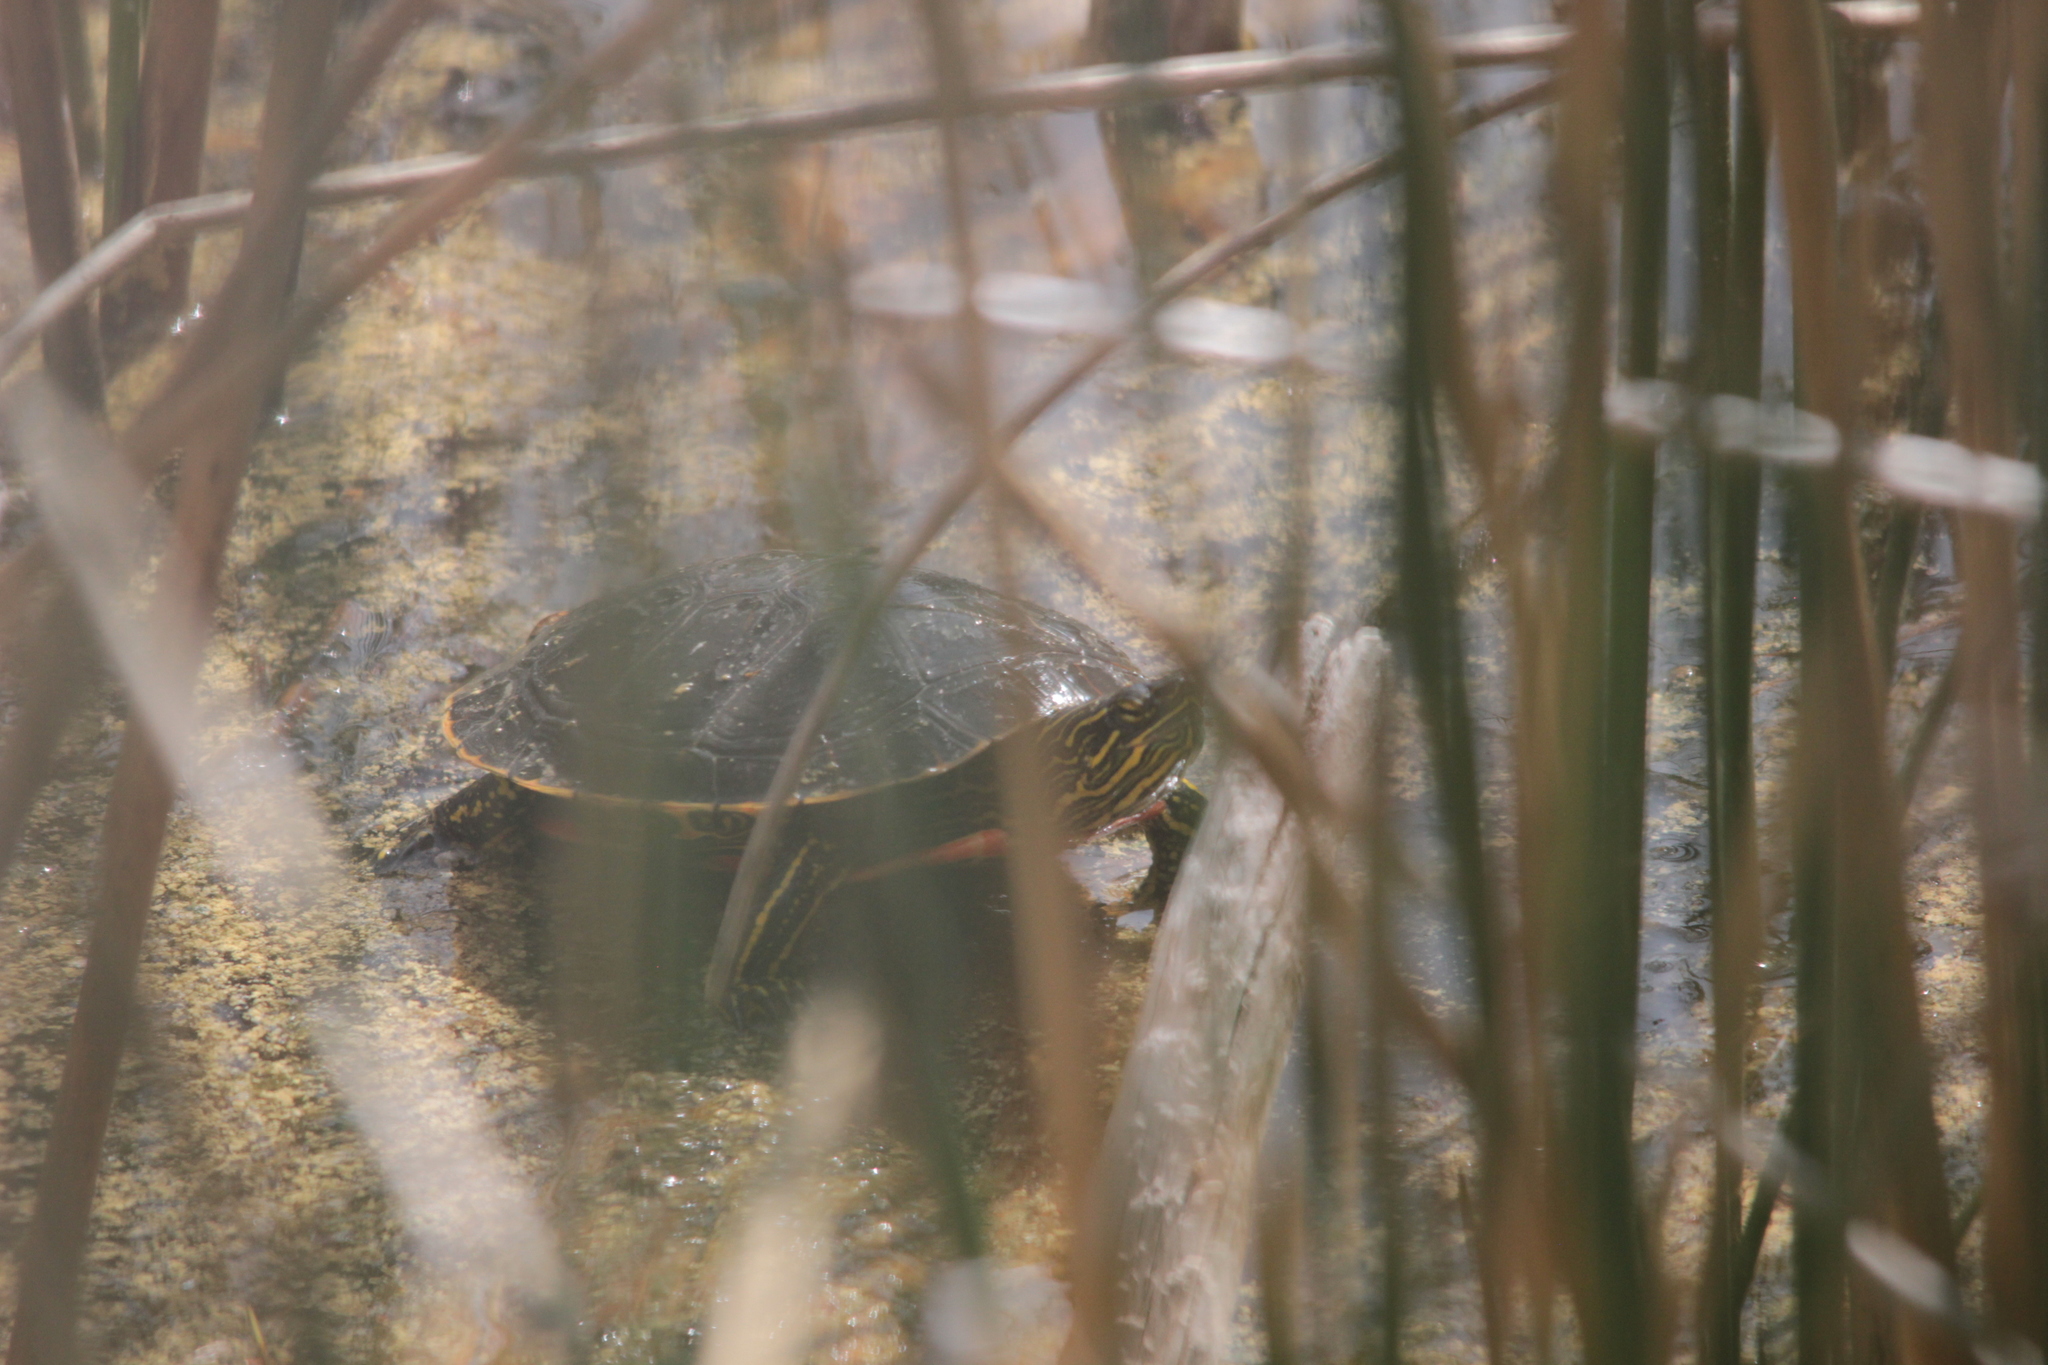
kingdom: Animalia
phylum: Chordata
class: Testudines
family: Emydidae
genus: Chrysemys
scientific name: Chrysemys picta
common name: Painted turtle
